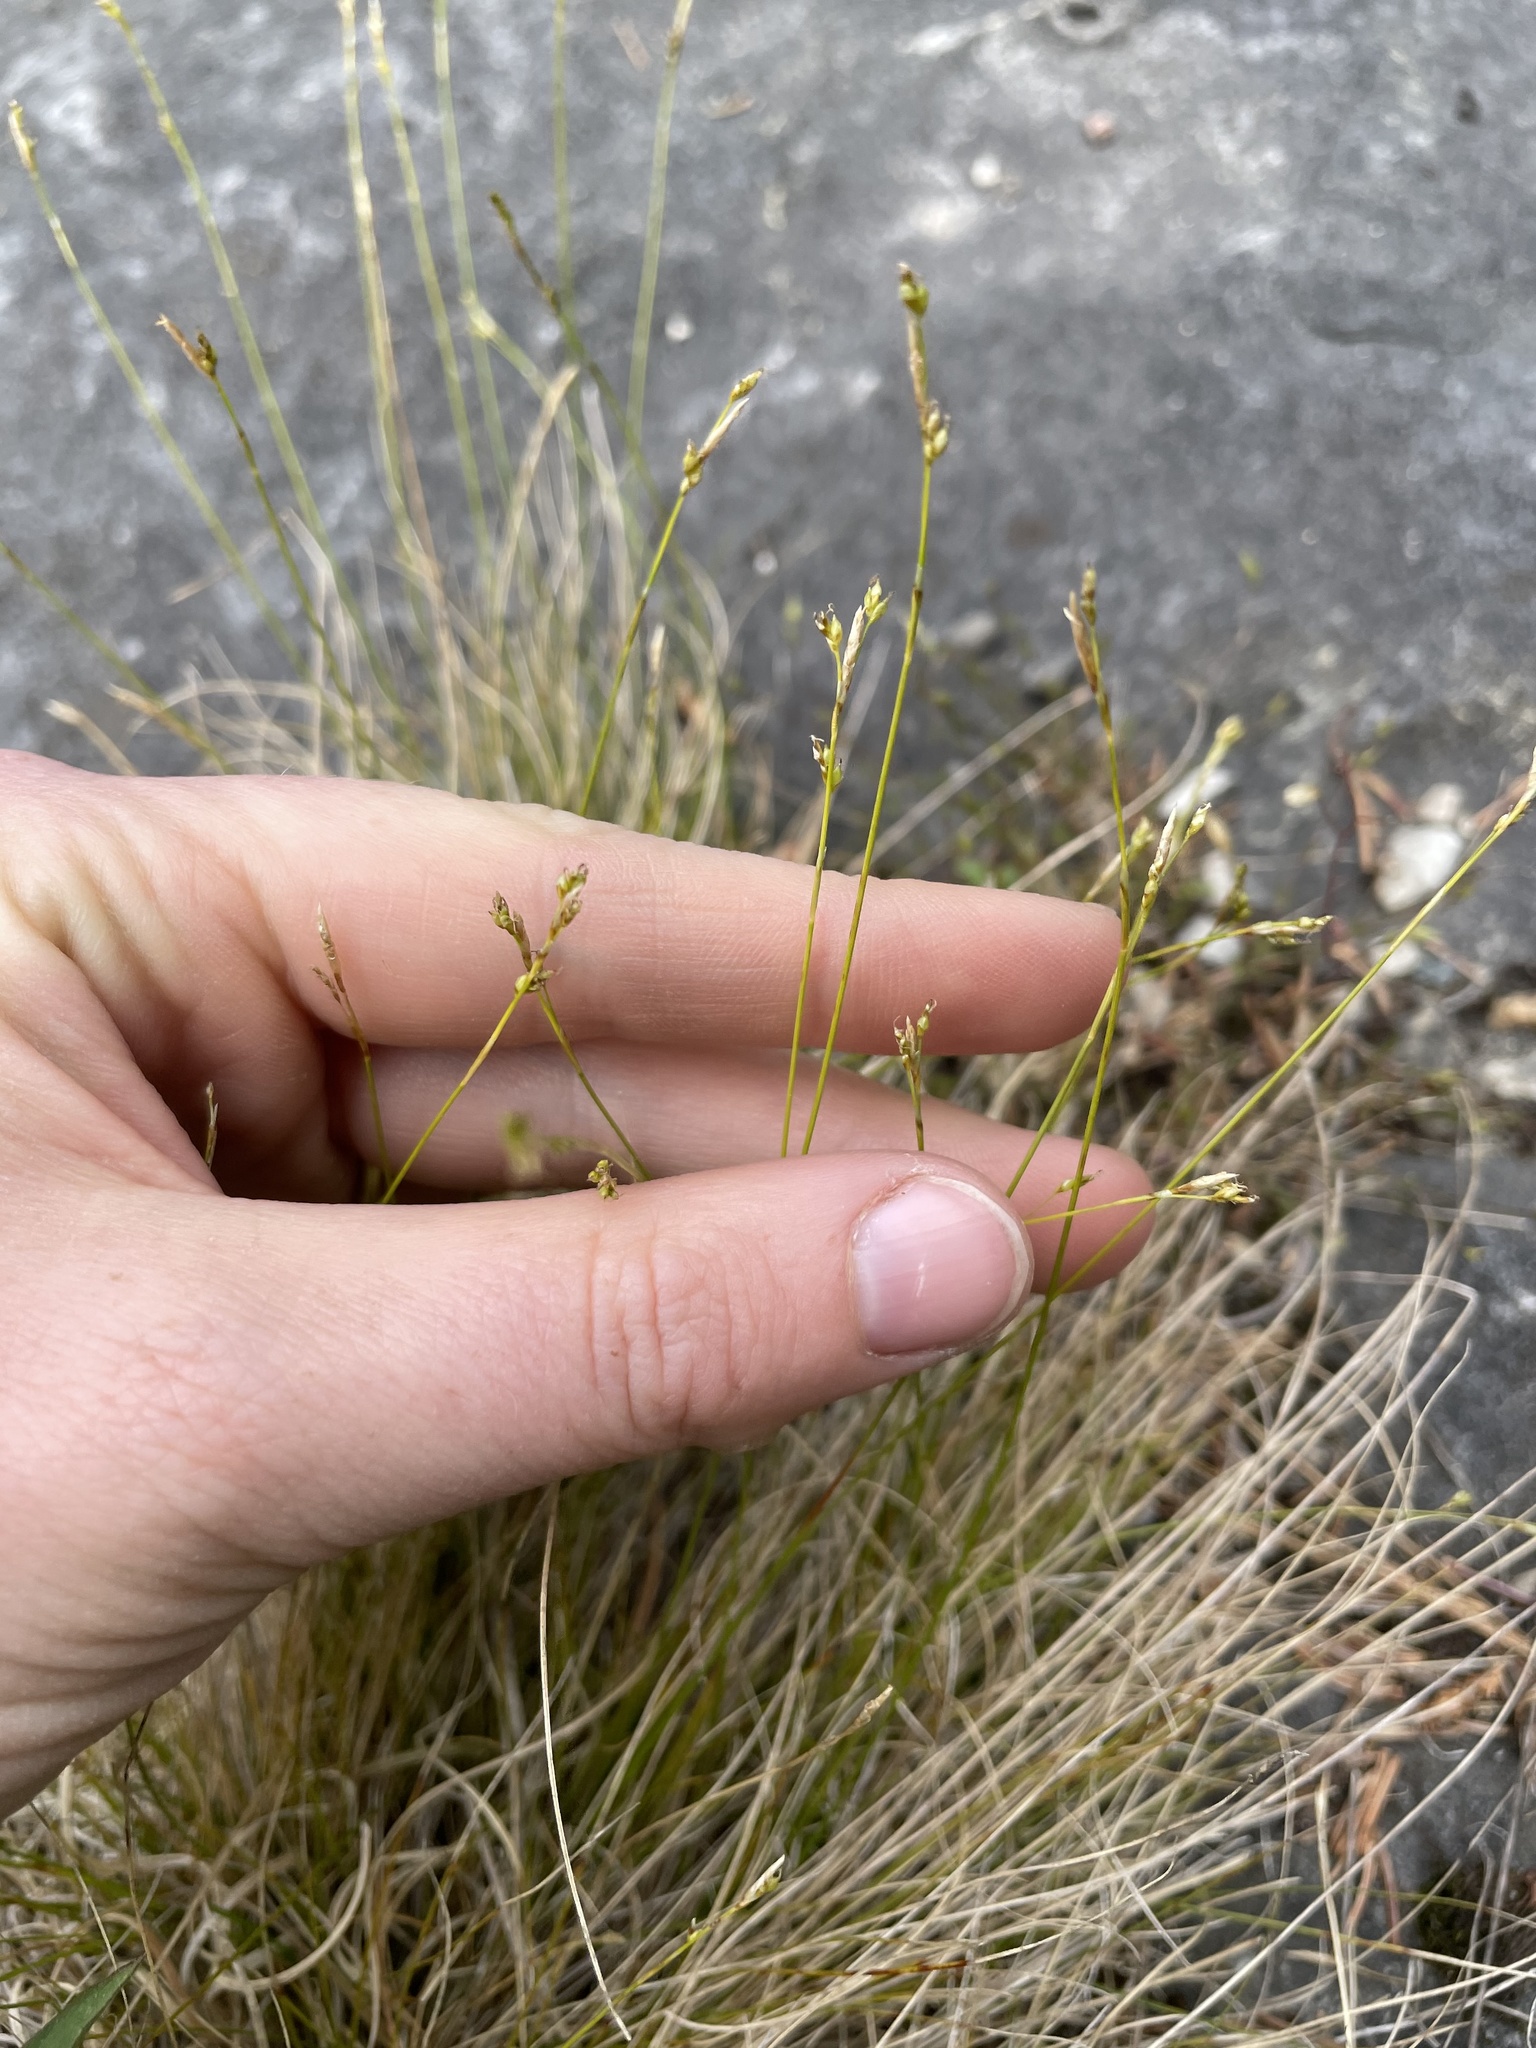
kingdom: Plantae
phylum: Tracheophyta
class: Liliopsida
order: Poales
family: Cyperaceae
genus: Carex
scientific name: Carex eburnea
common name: Bristle-leaved sedge
